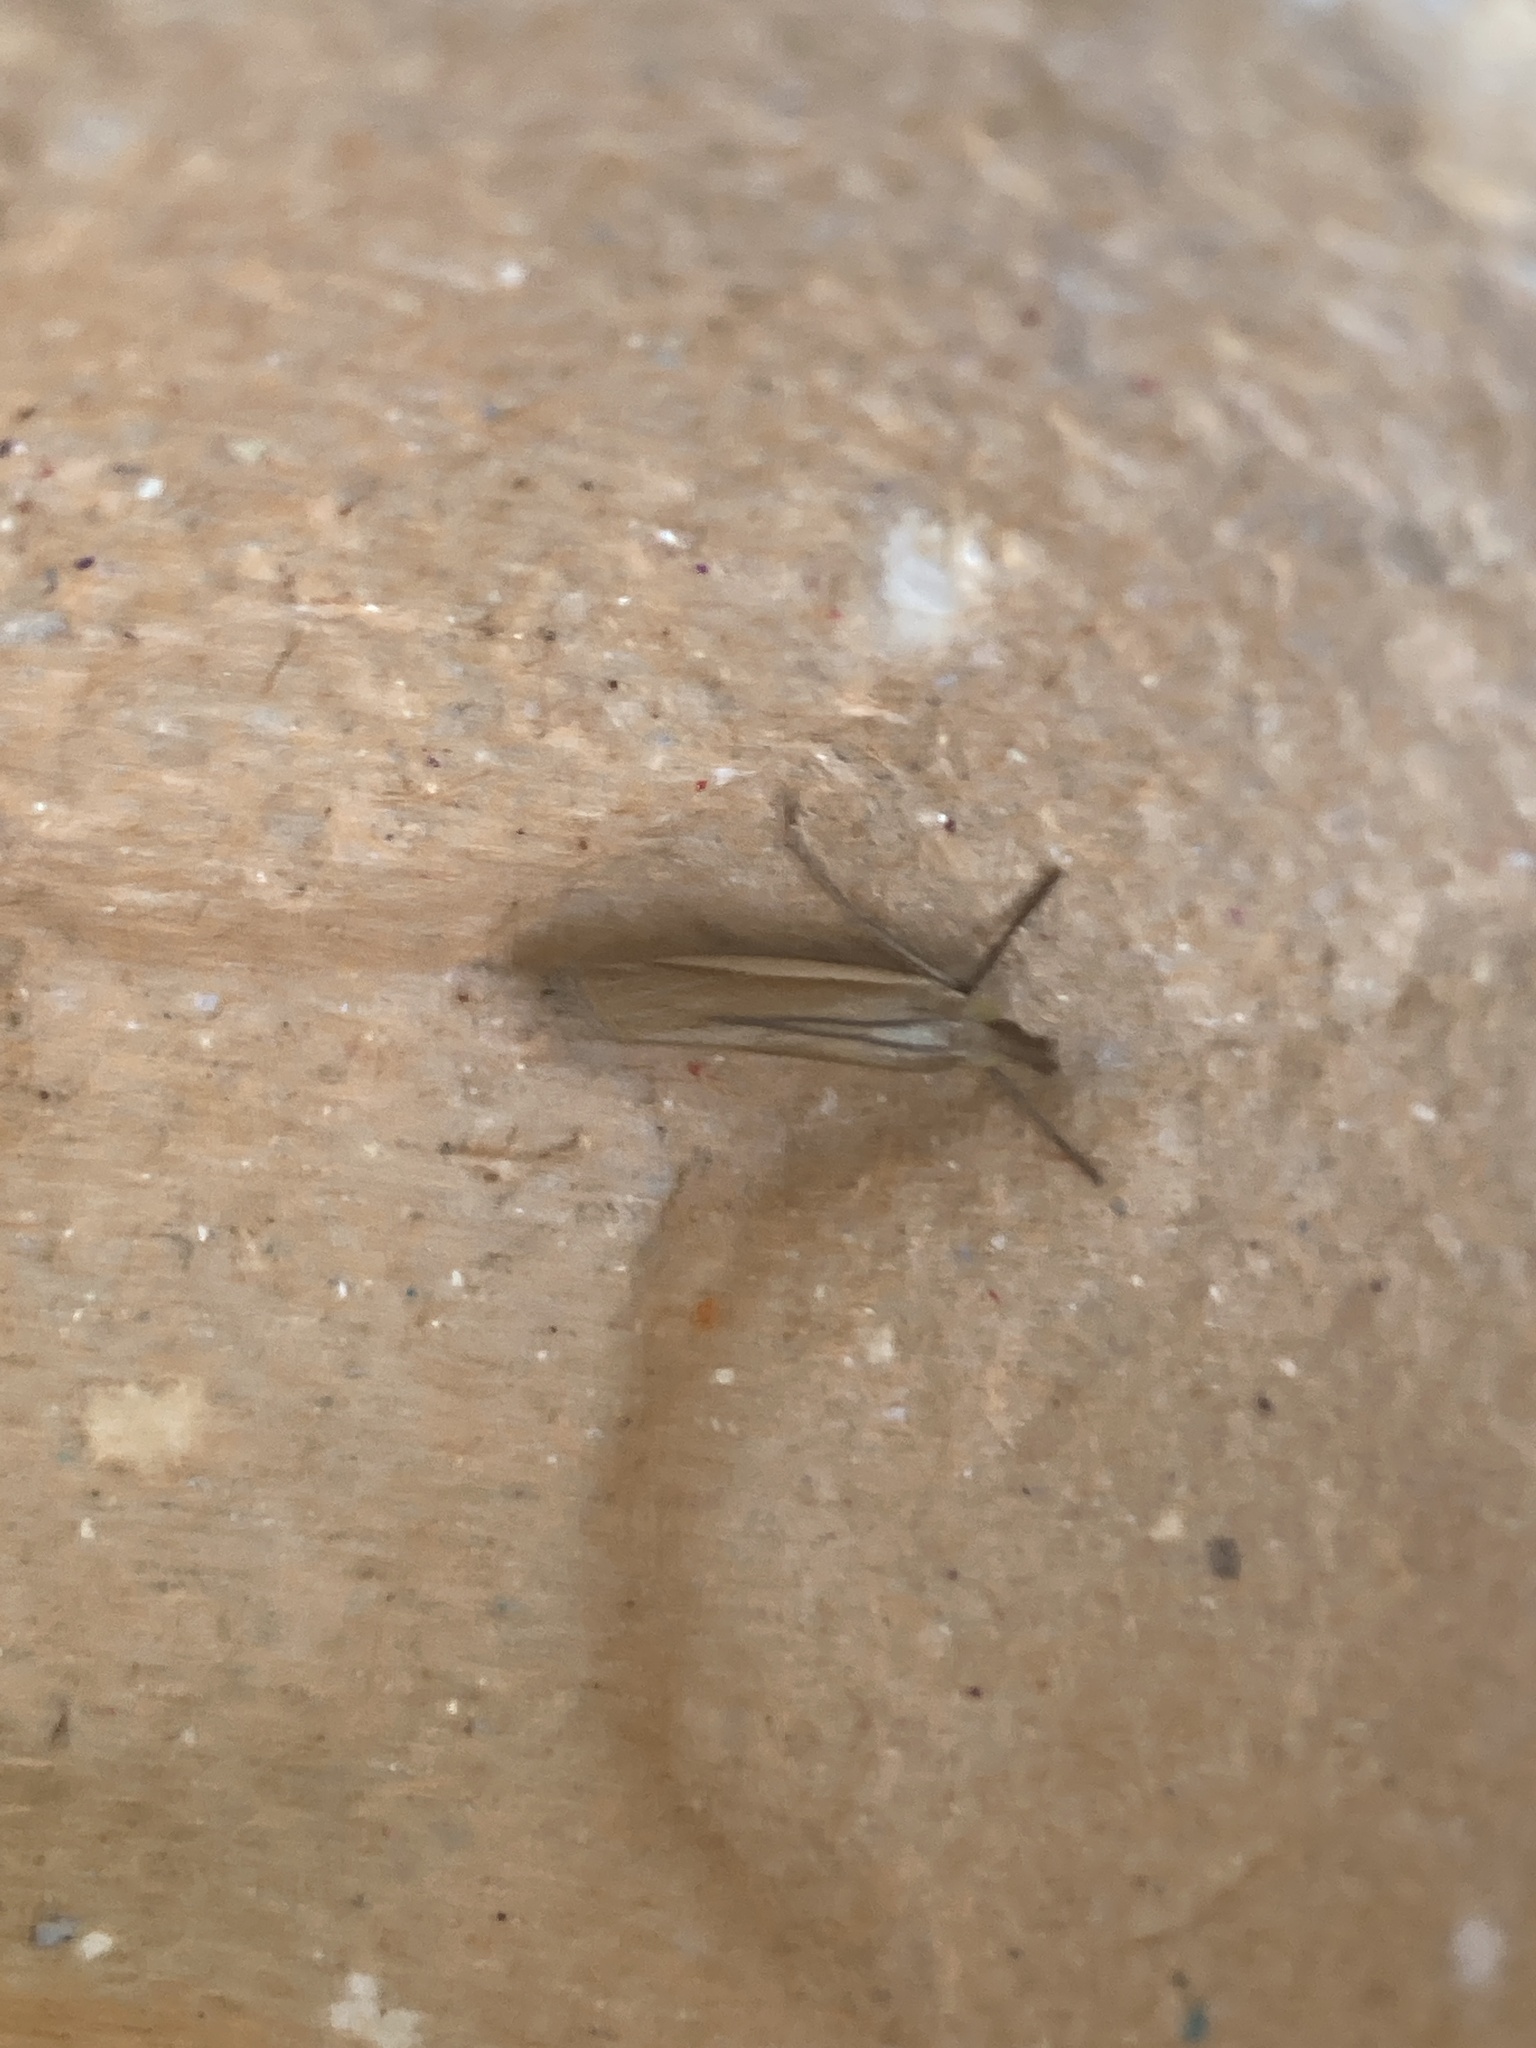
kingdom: Animalia
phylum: Arthropoda
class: Insecta
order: Lepidoptera
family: Crambidae
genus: Crambus
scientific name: Crambus pascuella
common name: Inlaid grass-veneer
